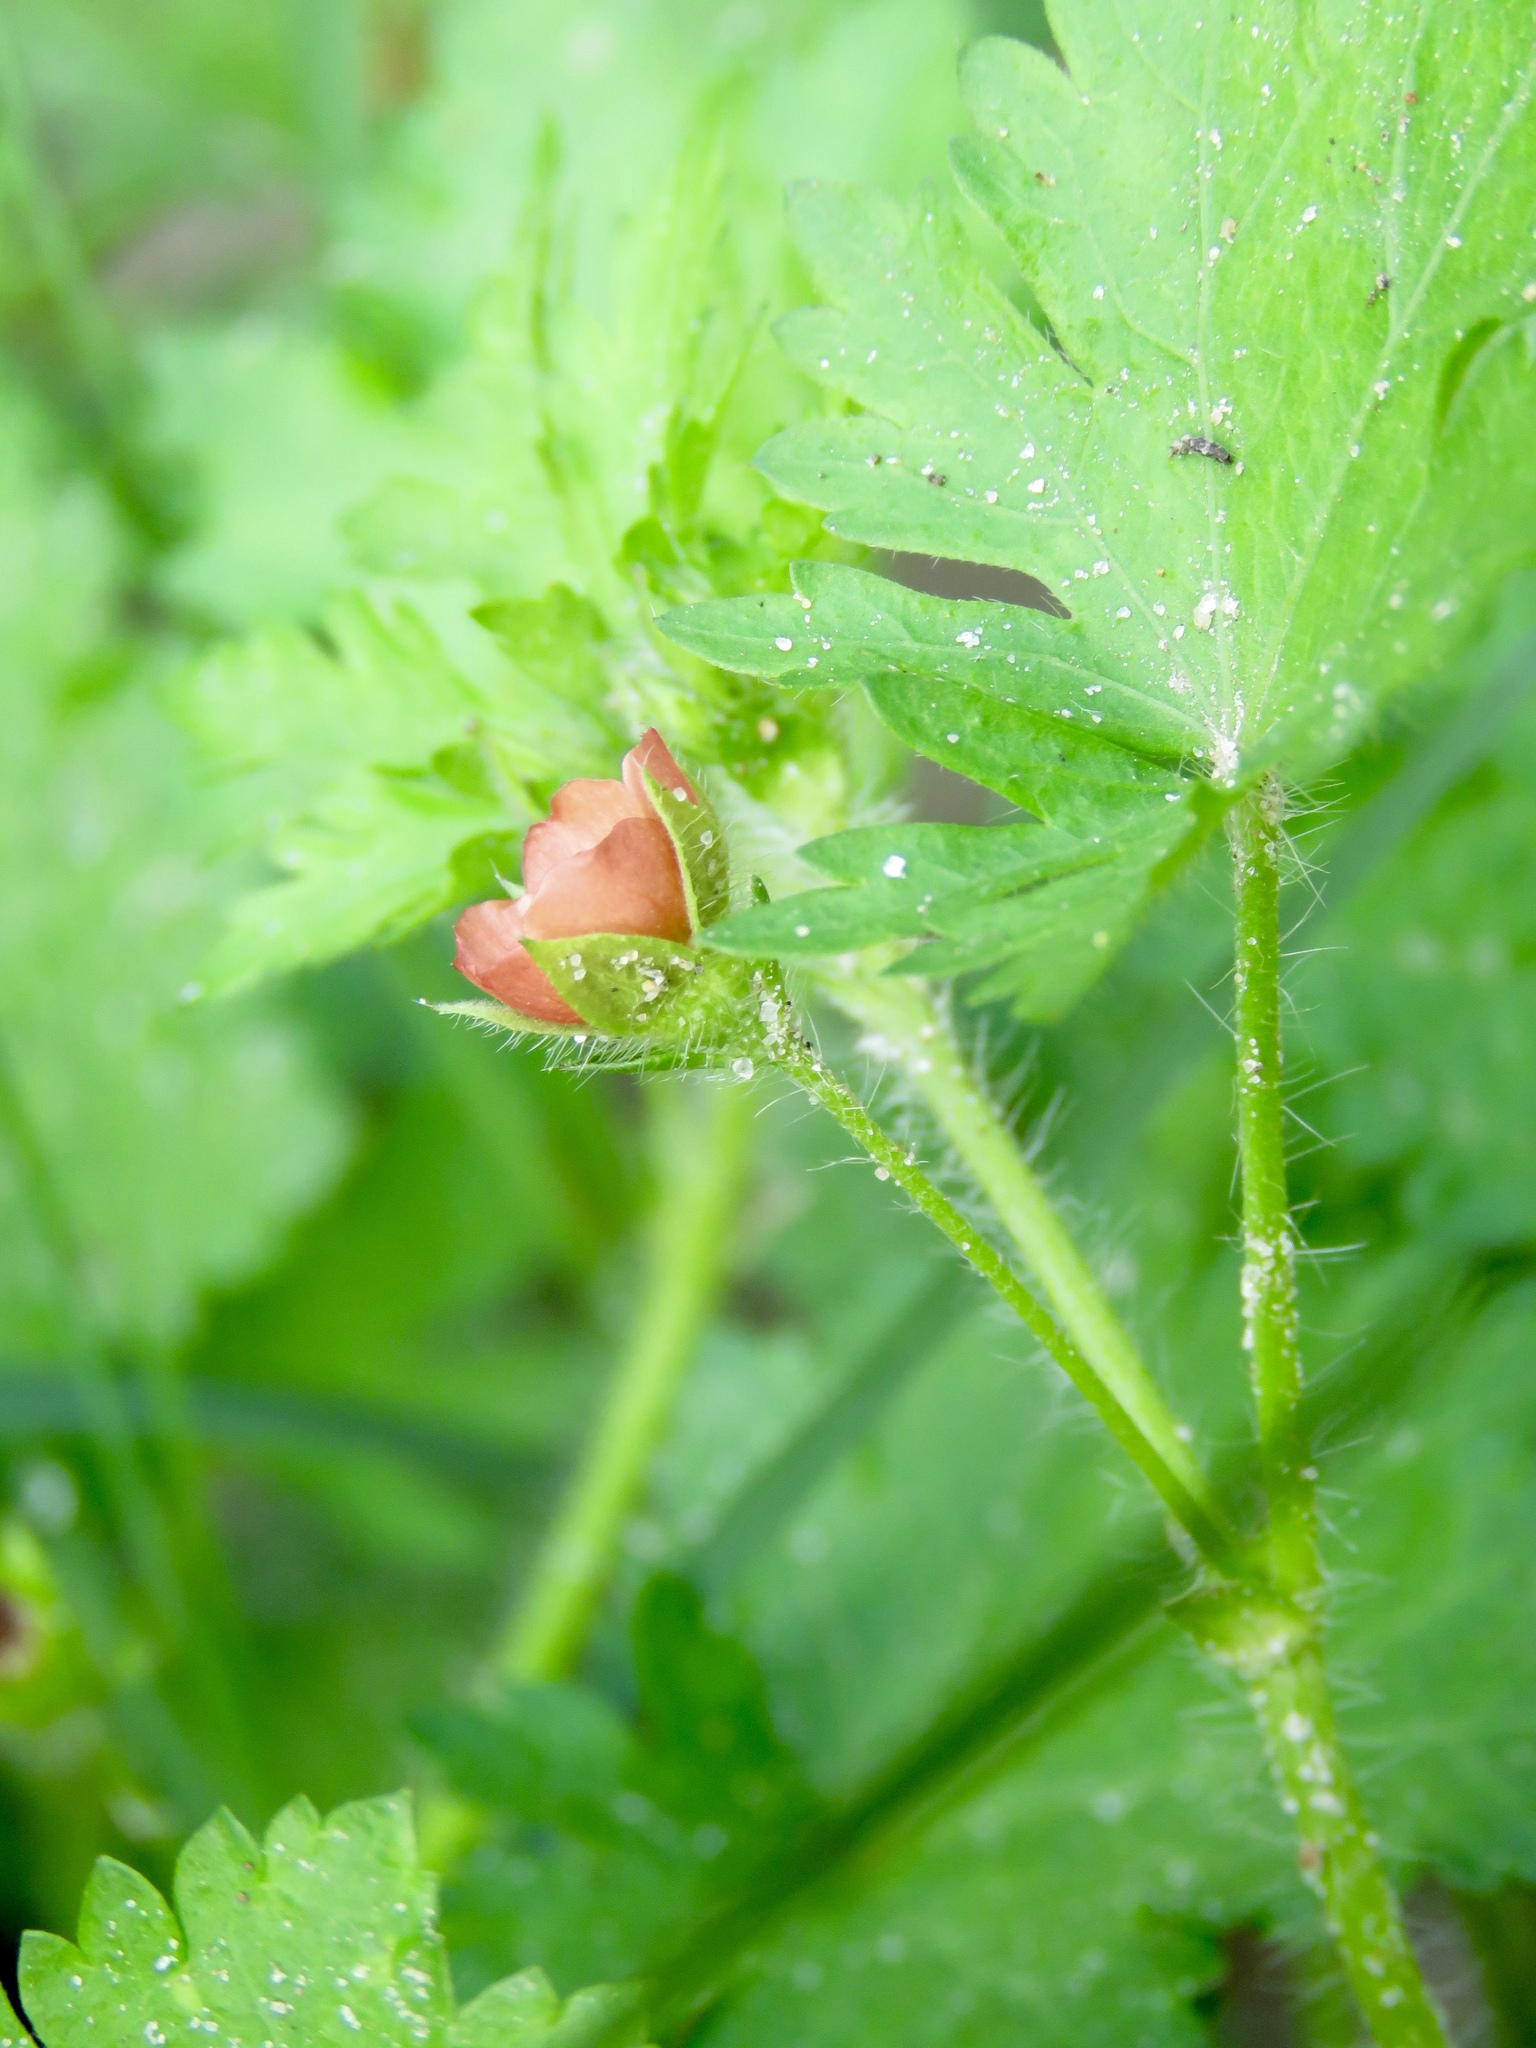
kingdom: Plantae
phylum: Tracheophyta
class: Magnoliopsida
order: Malvales
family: Malvaceae
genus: Modiola
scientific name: Modiola caroliniana
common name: Carolina bristlemallow
